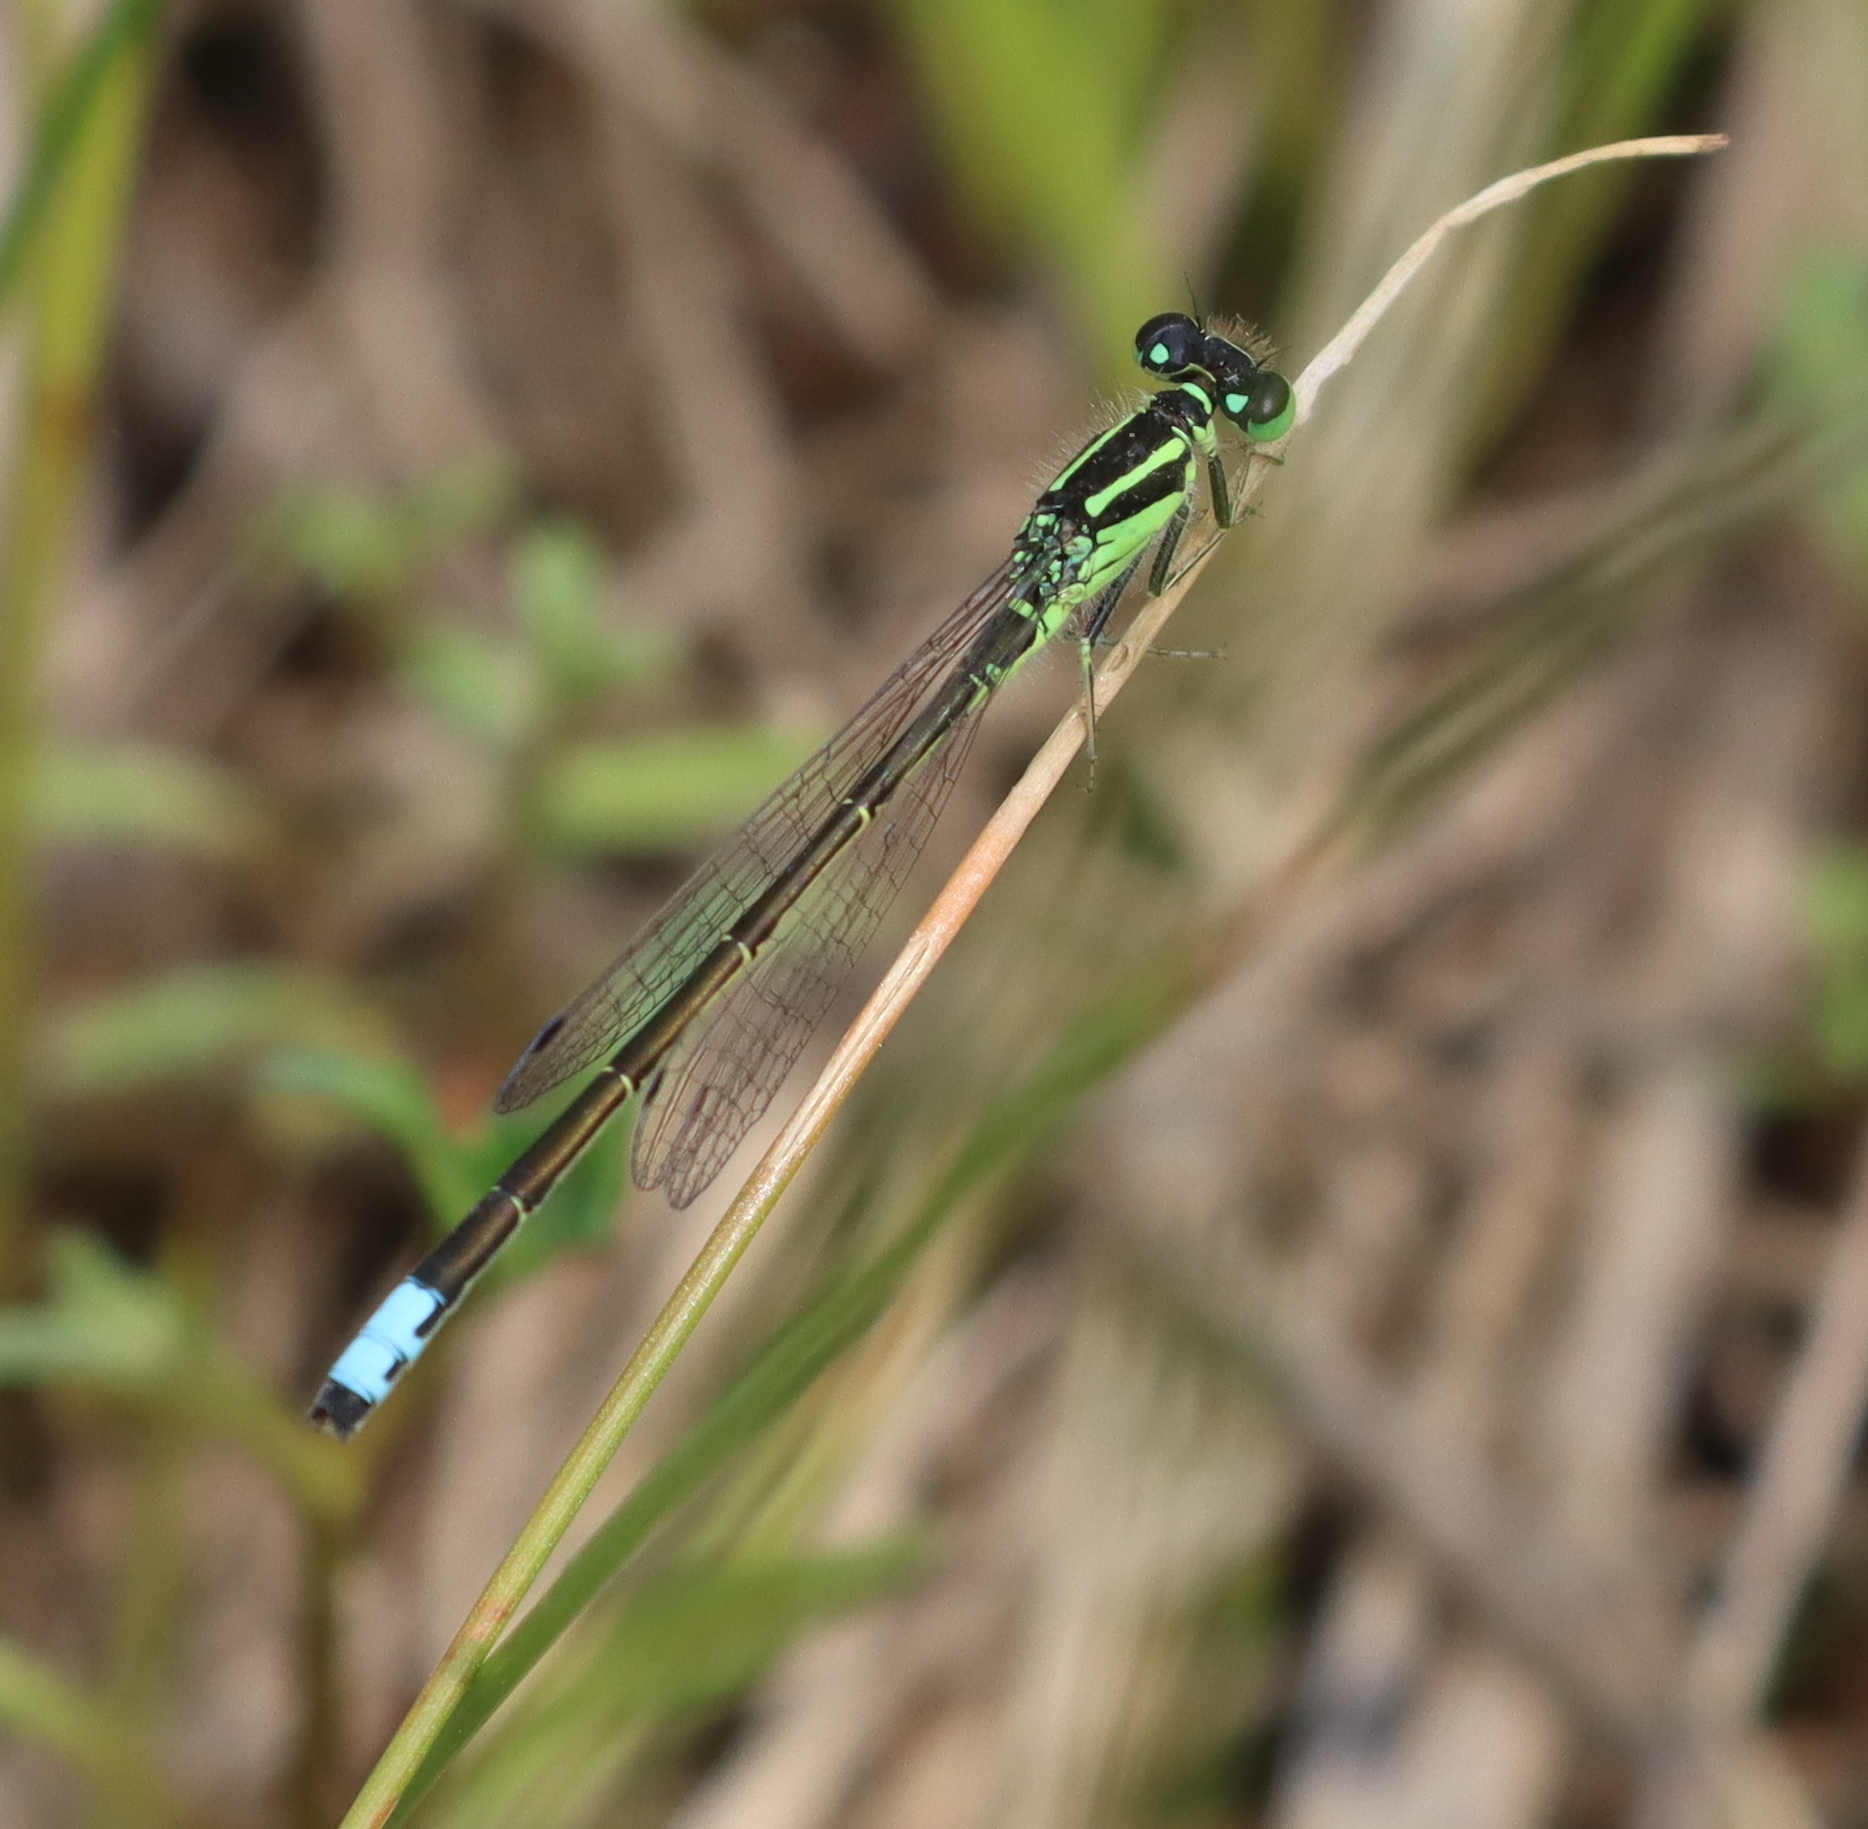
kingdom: Animalia
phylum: Arthropoda
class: Insecta
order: Odonata
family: Coenagrionidae
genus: Ischnura
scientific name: Ischnura verticalis
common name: Eastern forktail
